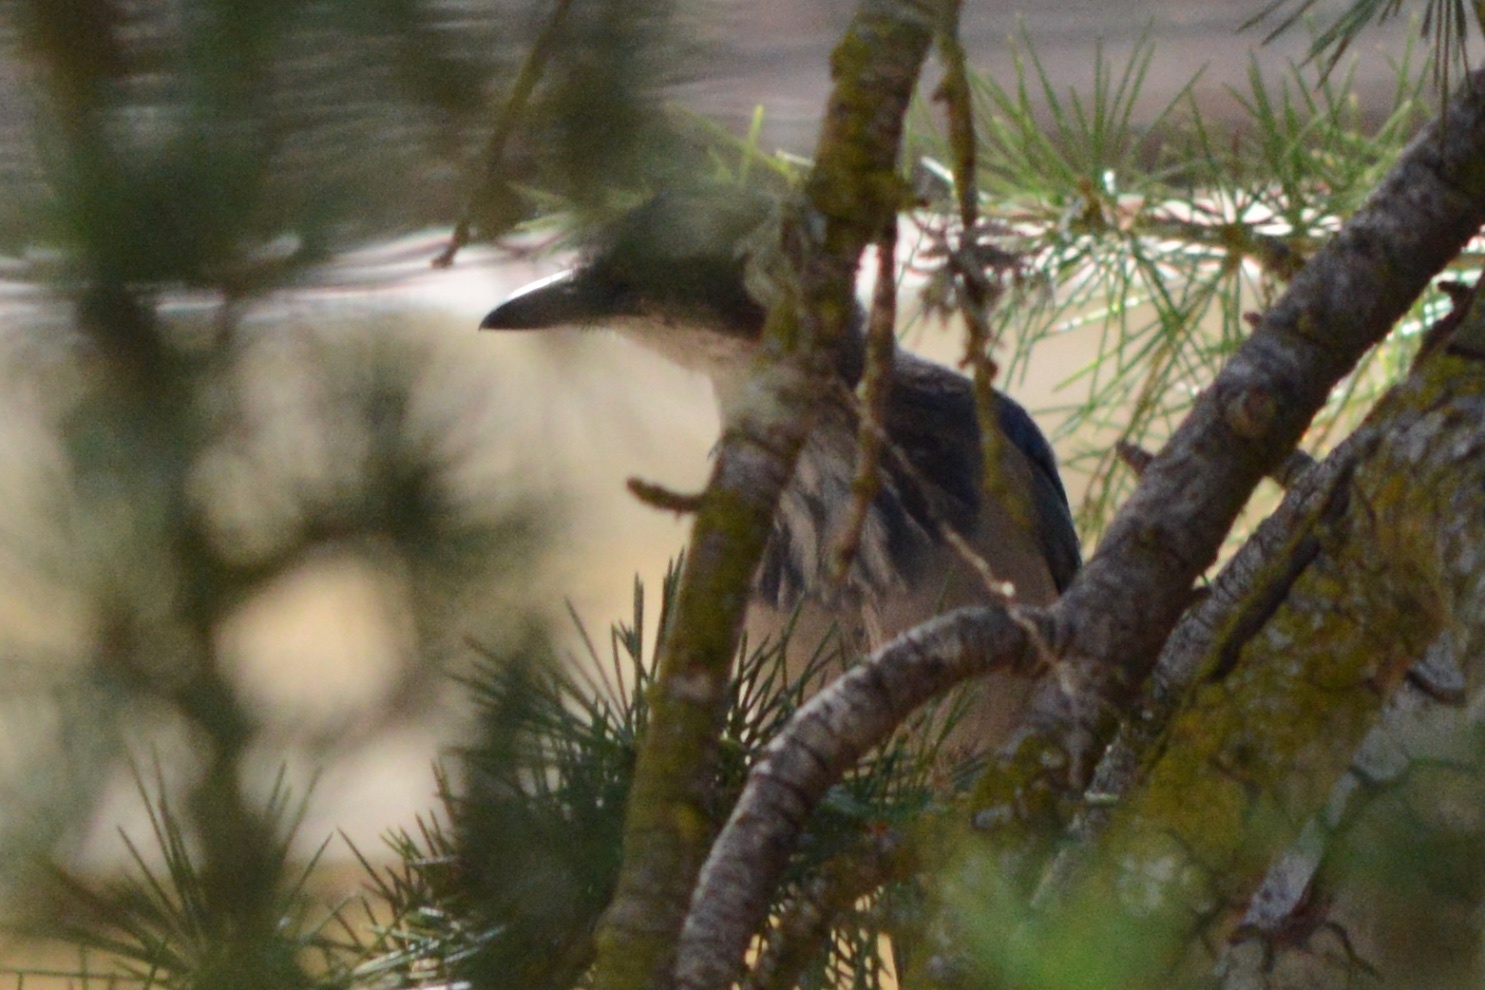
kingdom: Animalia
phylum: Chordata
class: Aves
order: Passeriformes
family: Corvidae
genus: Aphelocoma
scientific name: Aphelocoma californica
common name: California scrub-jay
